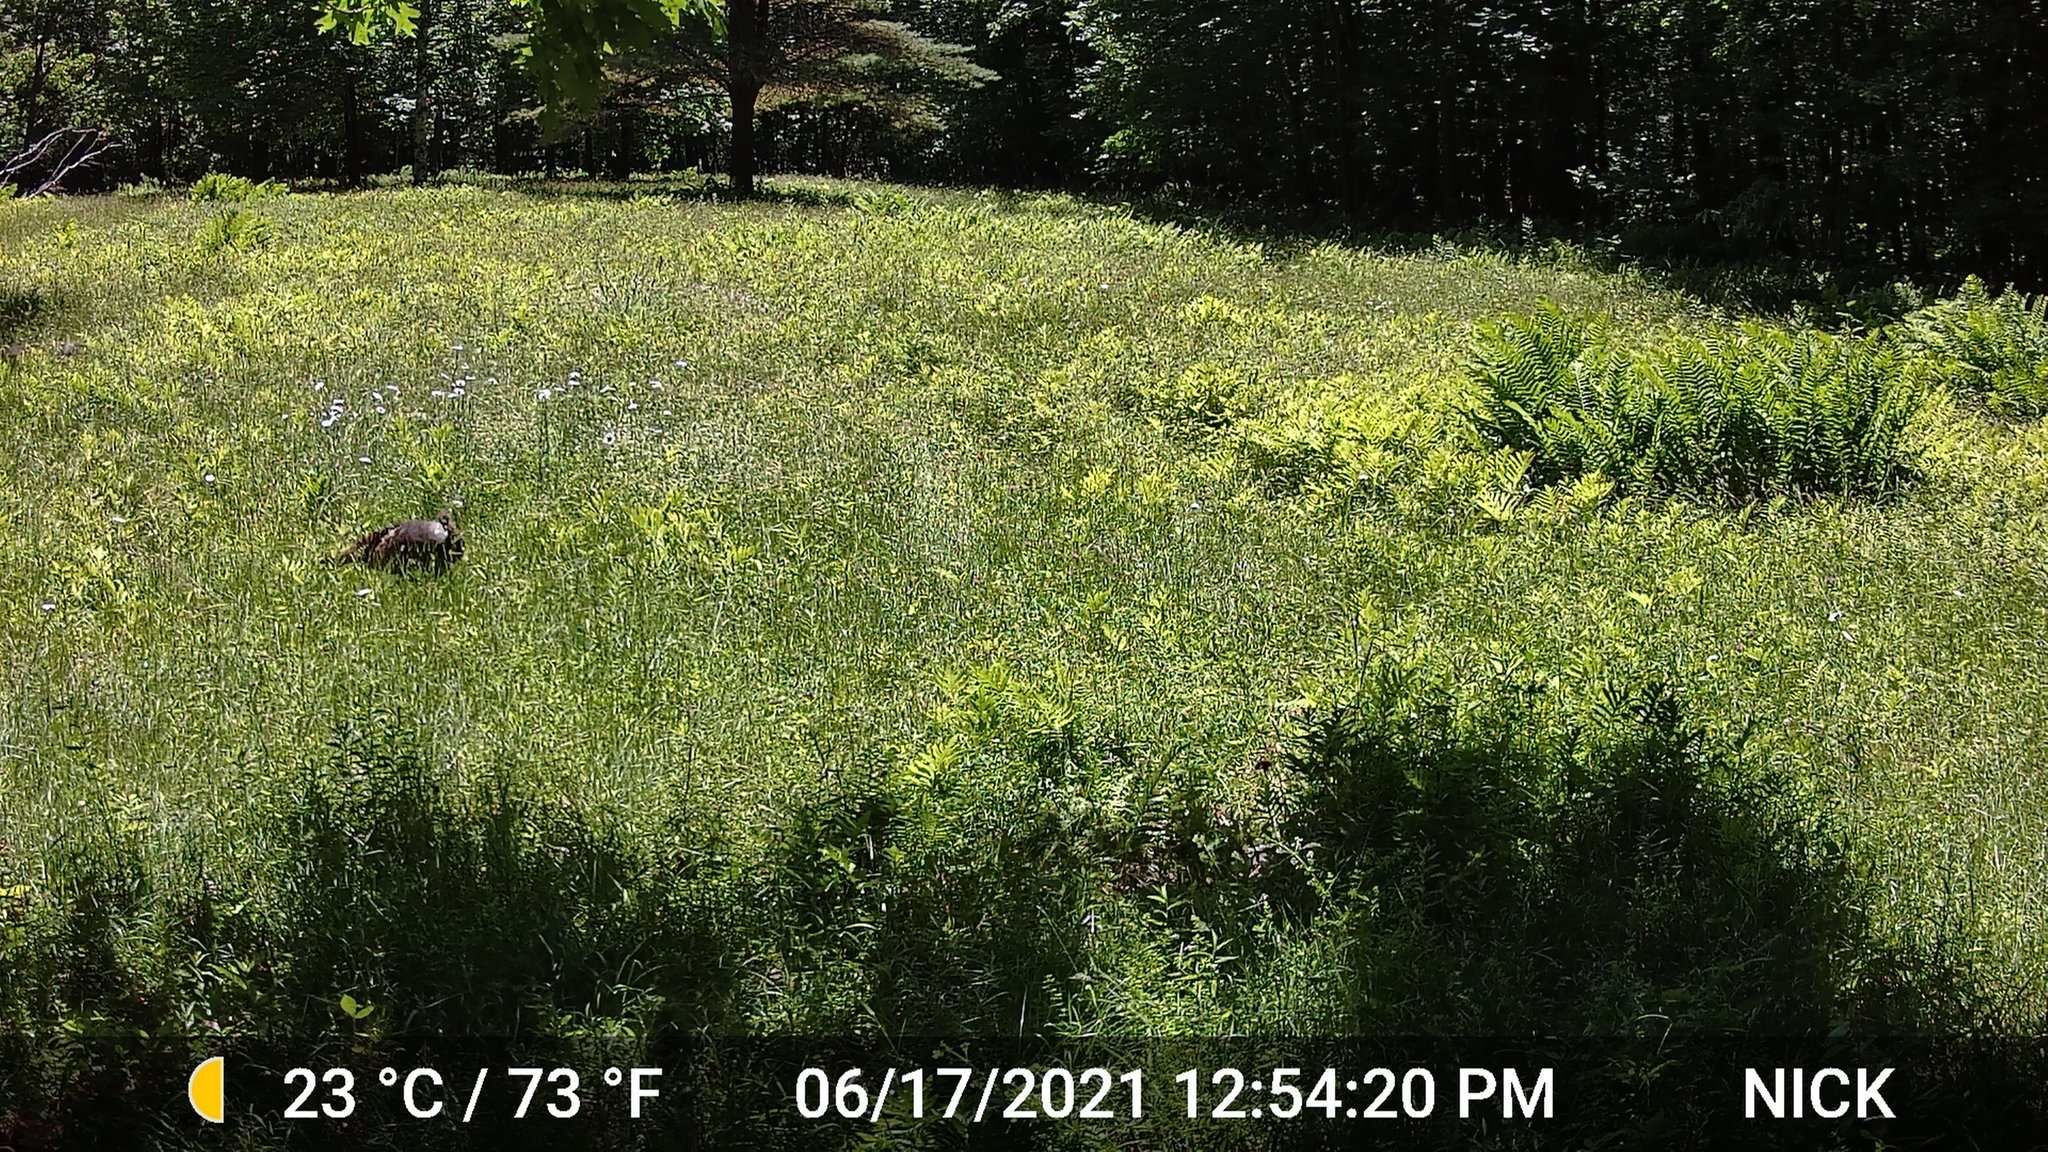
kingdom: Animalia
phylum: Chordata
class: Aves
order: Galliformes
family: Phasianidae
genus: Meleagris
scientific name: Meleagris gallopavo
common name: Wild turkey
